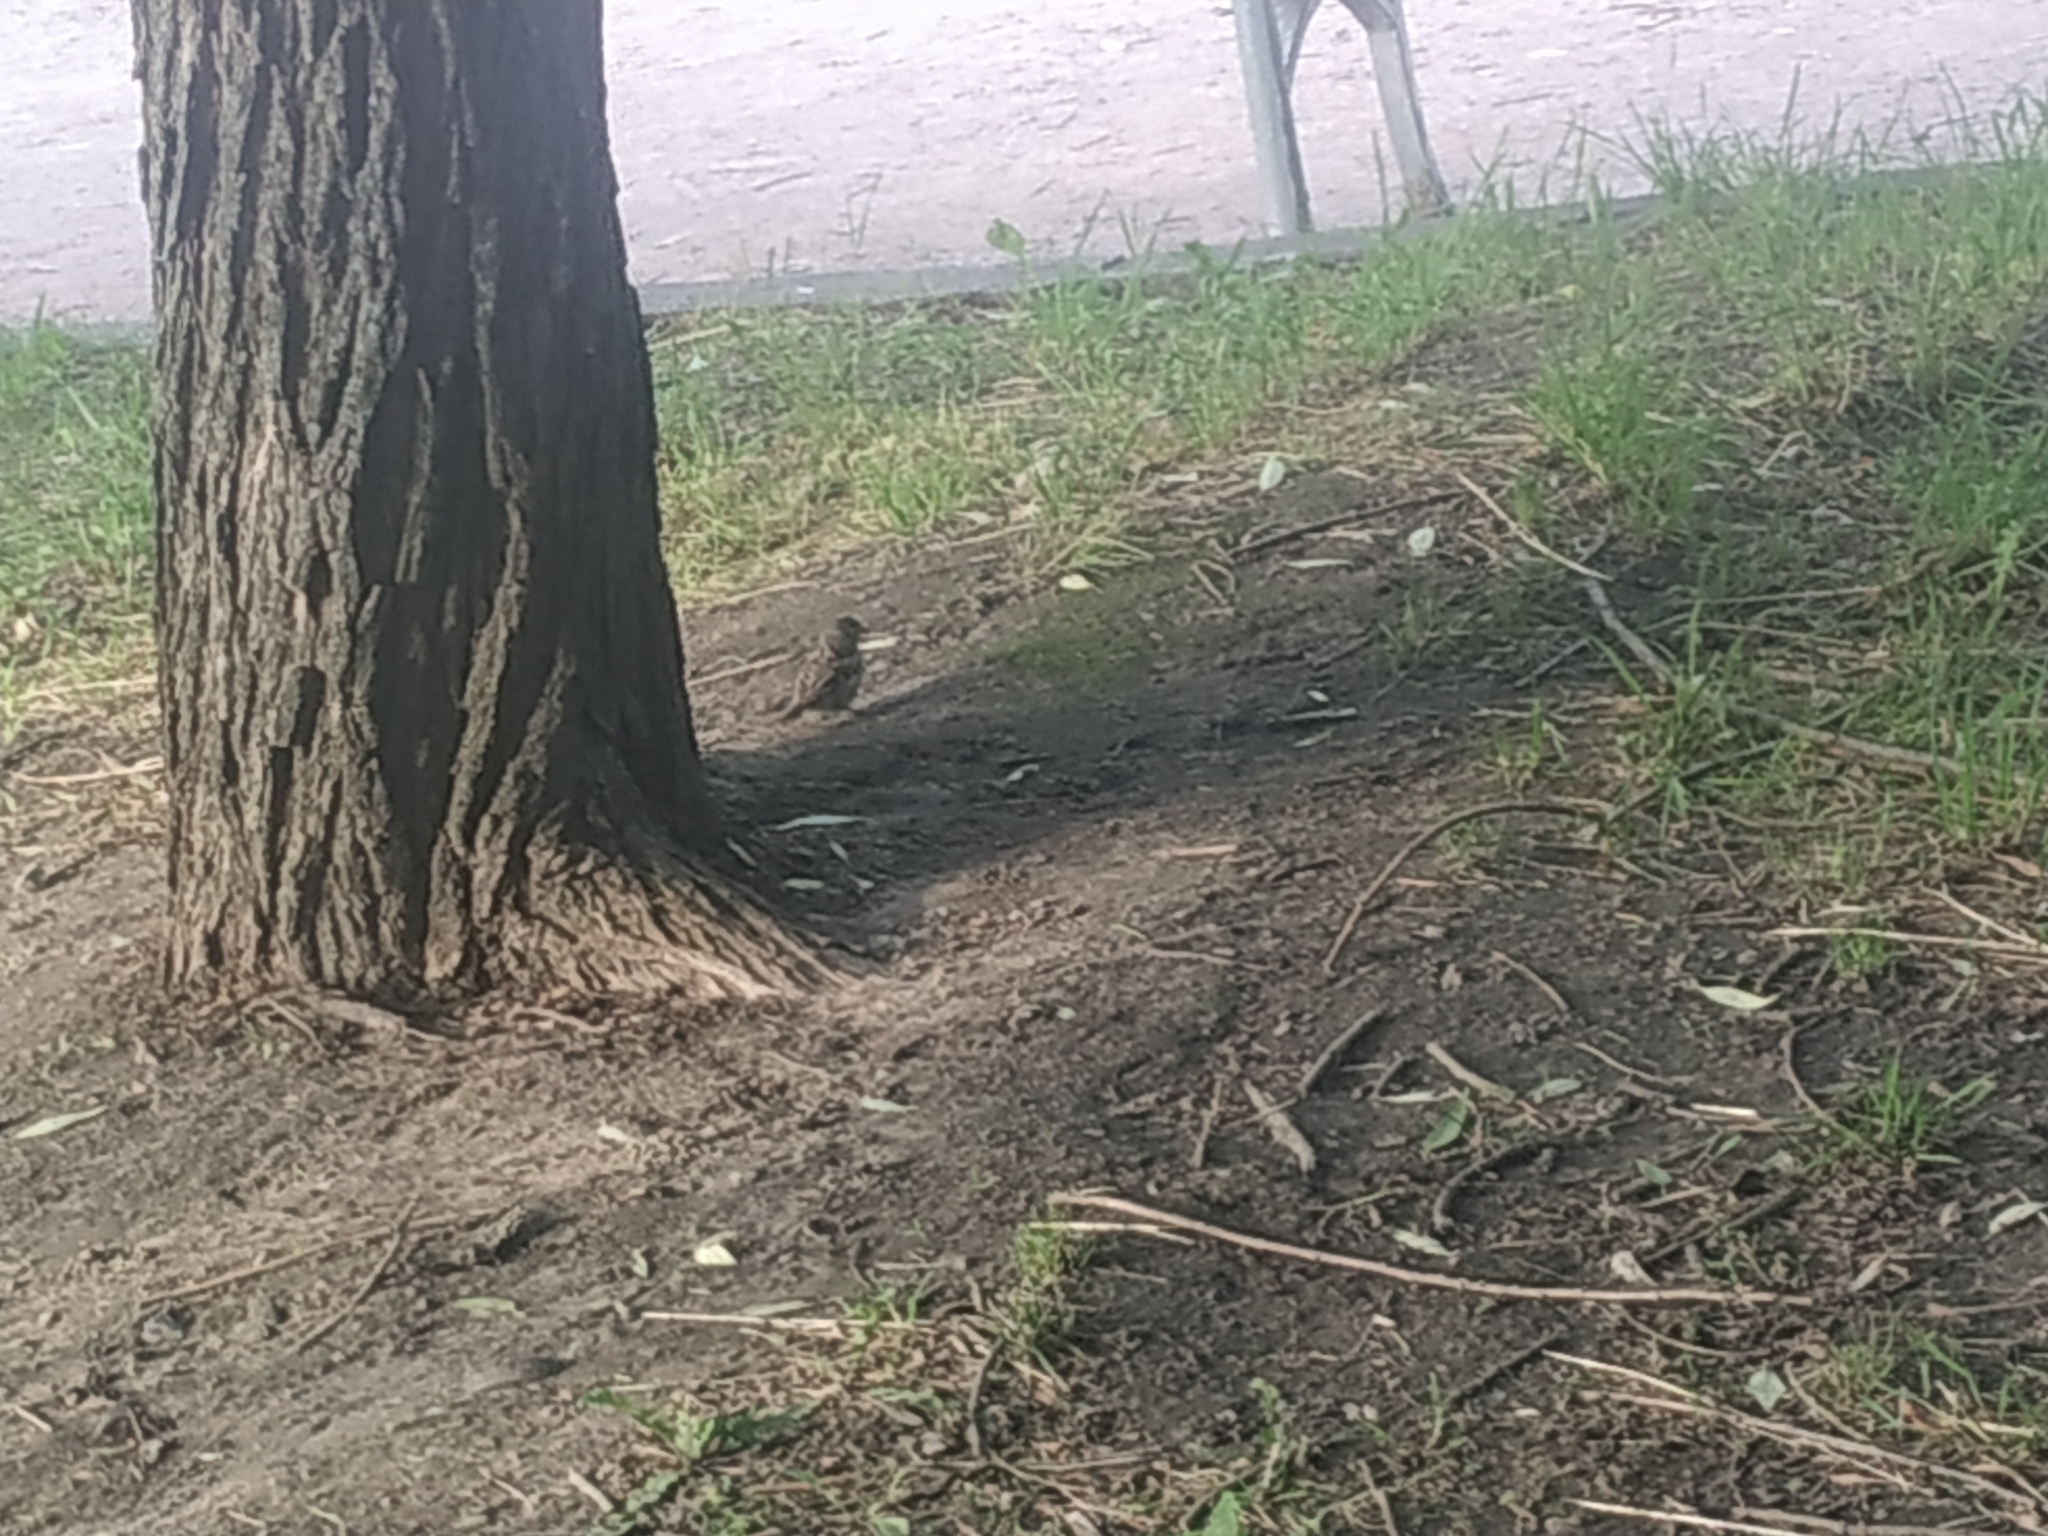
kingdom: Animalia
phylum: Chordata
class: Aves
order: Passeriformes
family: Passeridae
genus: Passer
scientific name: Passer domesticus
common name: House sparrow
